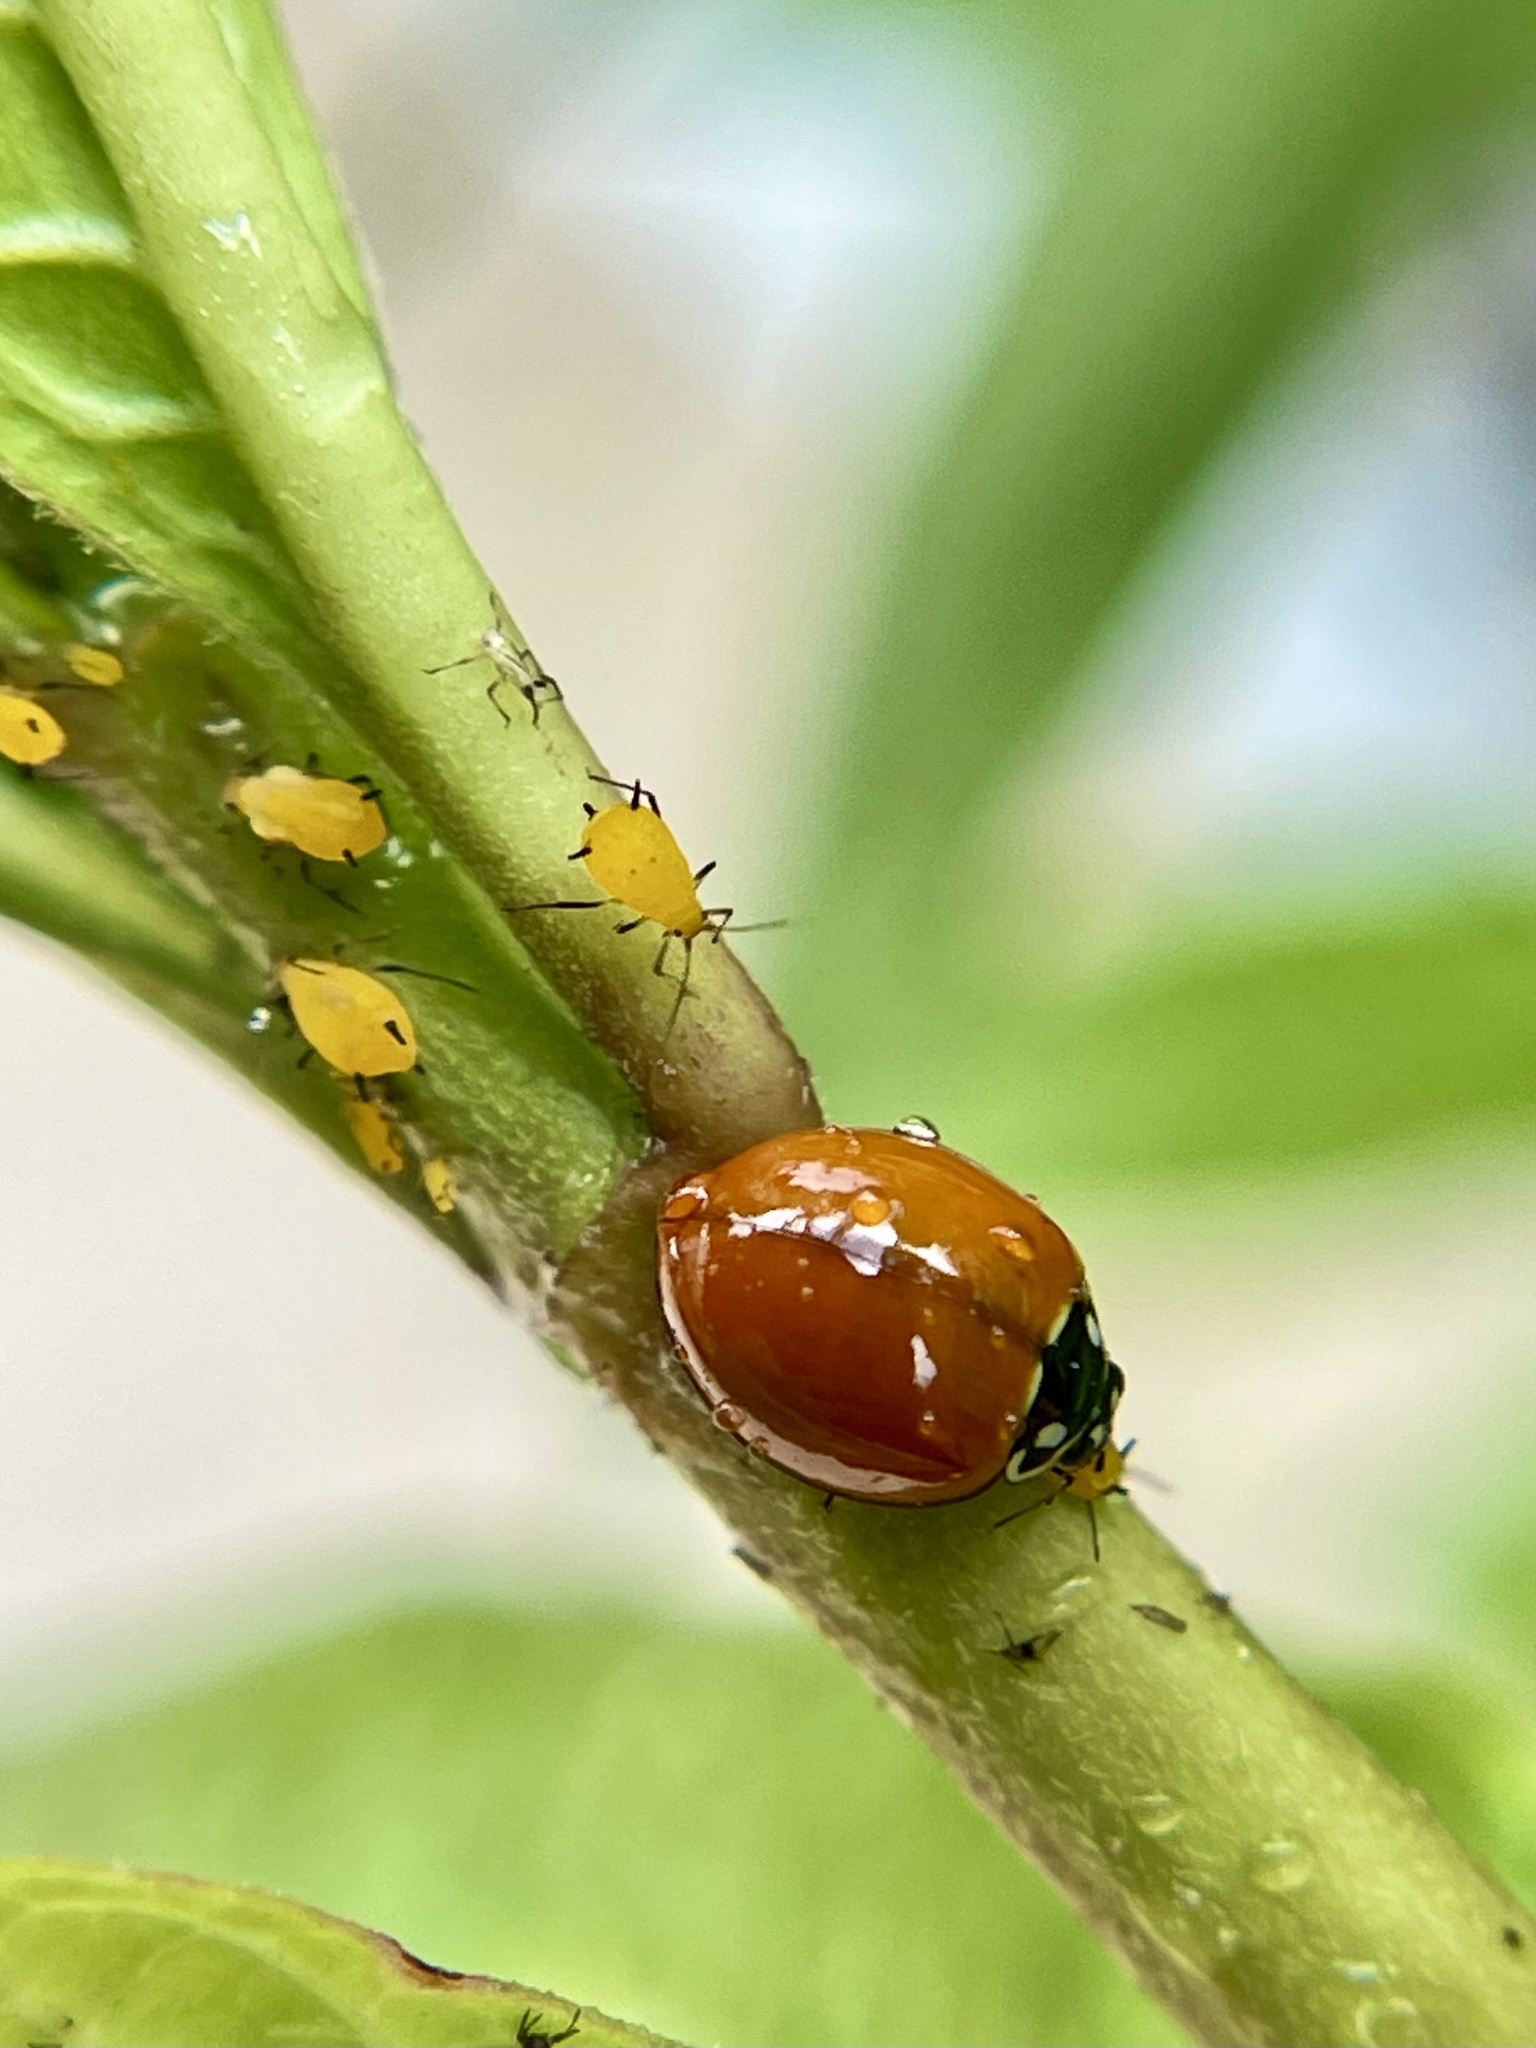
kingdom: Animalia
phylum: Arthropoda
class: Insecta
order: Coleoptera
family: Coccinellidae
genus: Cycloneda
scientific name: Cycloneda sanguinea
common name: Ladybird beetle
